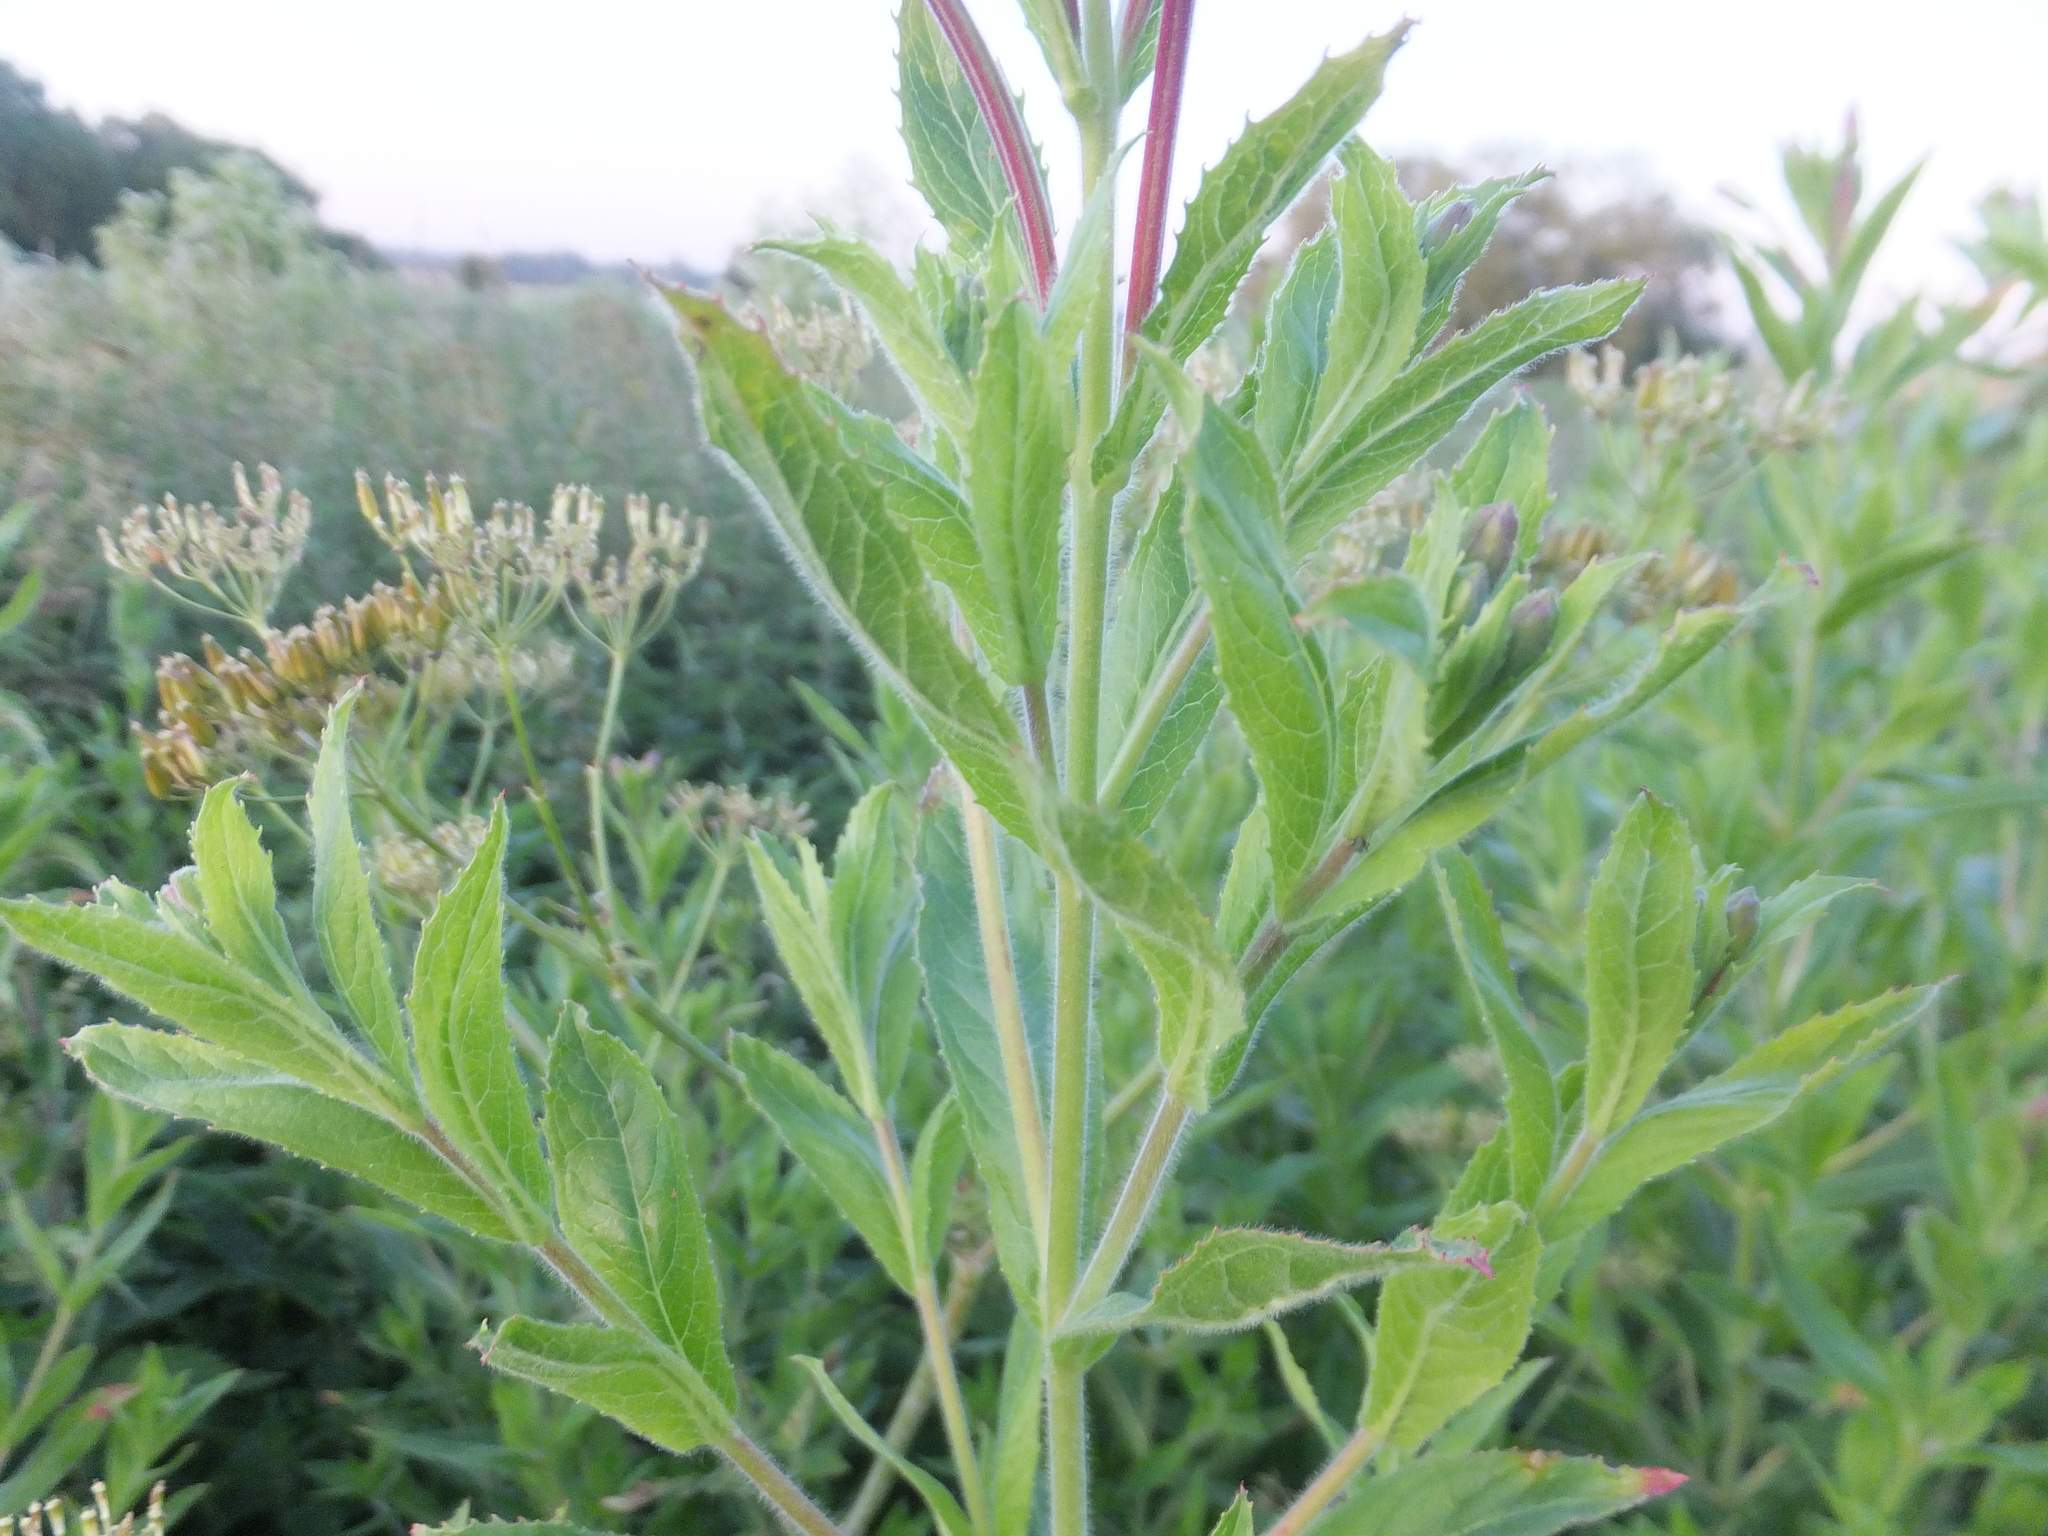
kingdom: Plantae
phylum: Tracheophyta
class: Magnoliopsida
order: Myrtales
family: Onagraceae
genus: Epilobium
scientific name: Epilobium hirsutum
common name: Great willowherb
